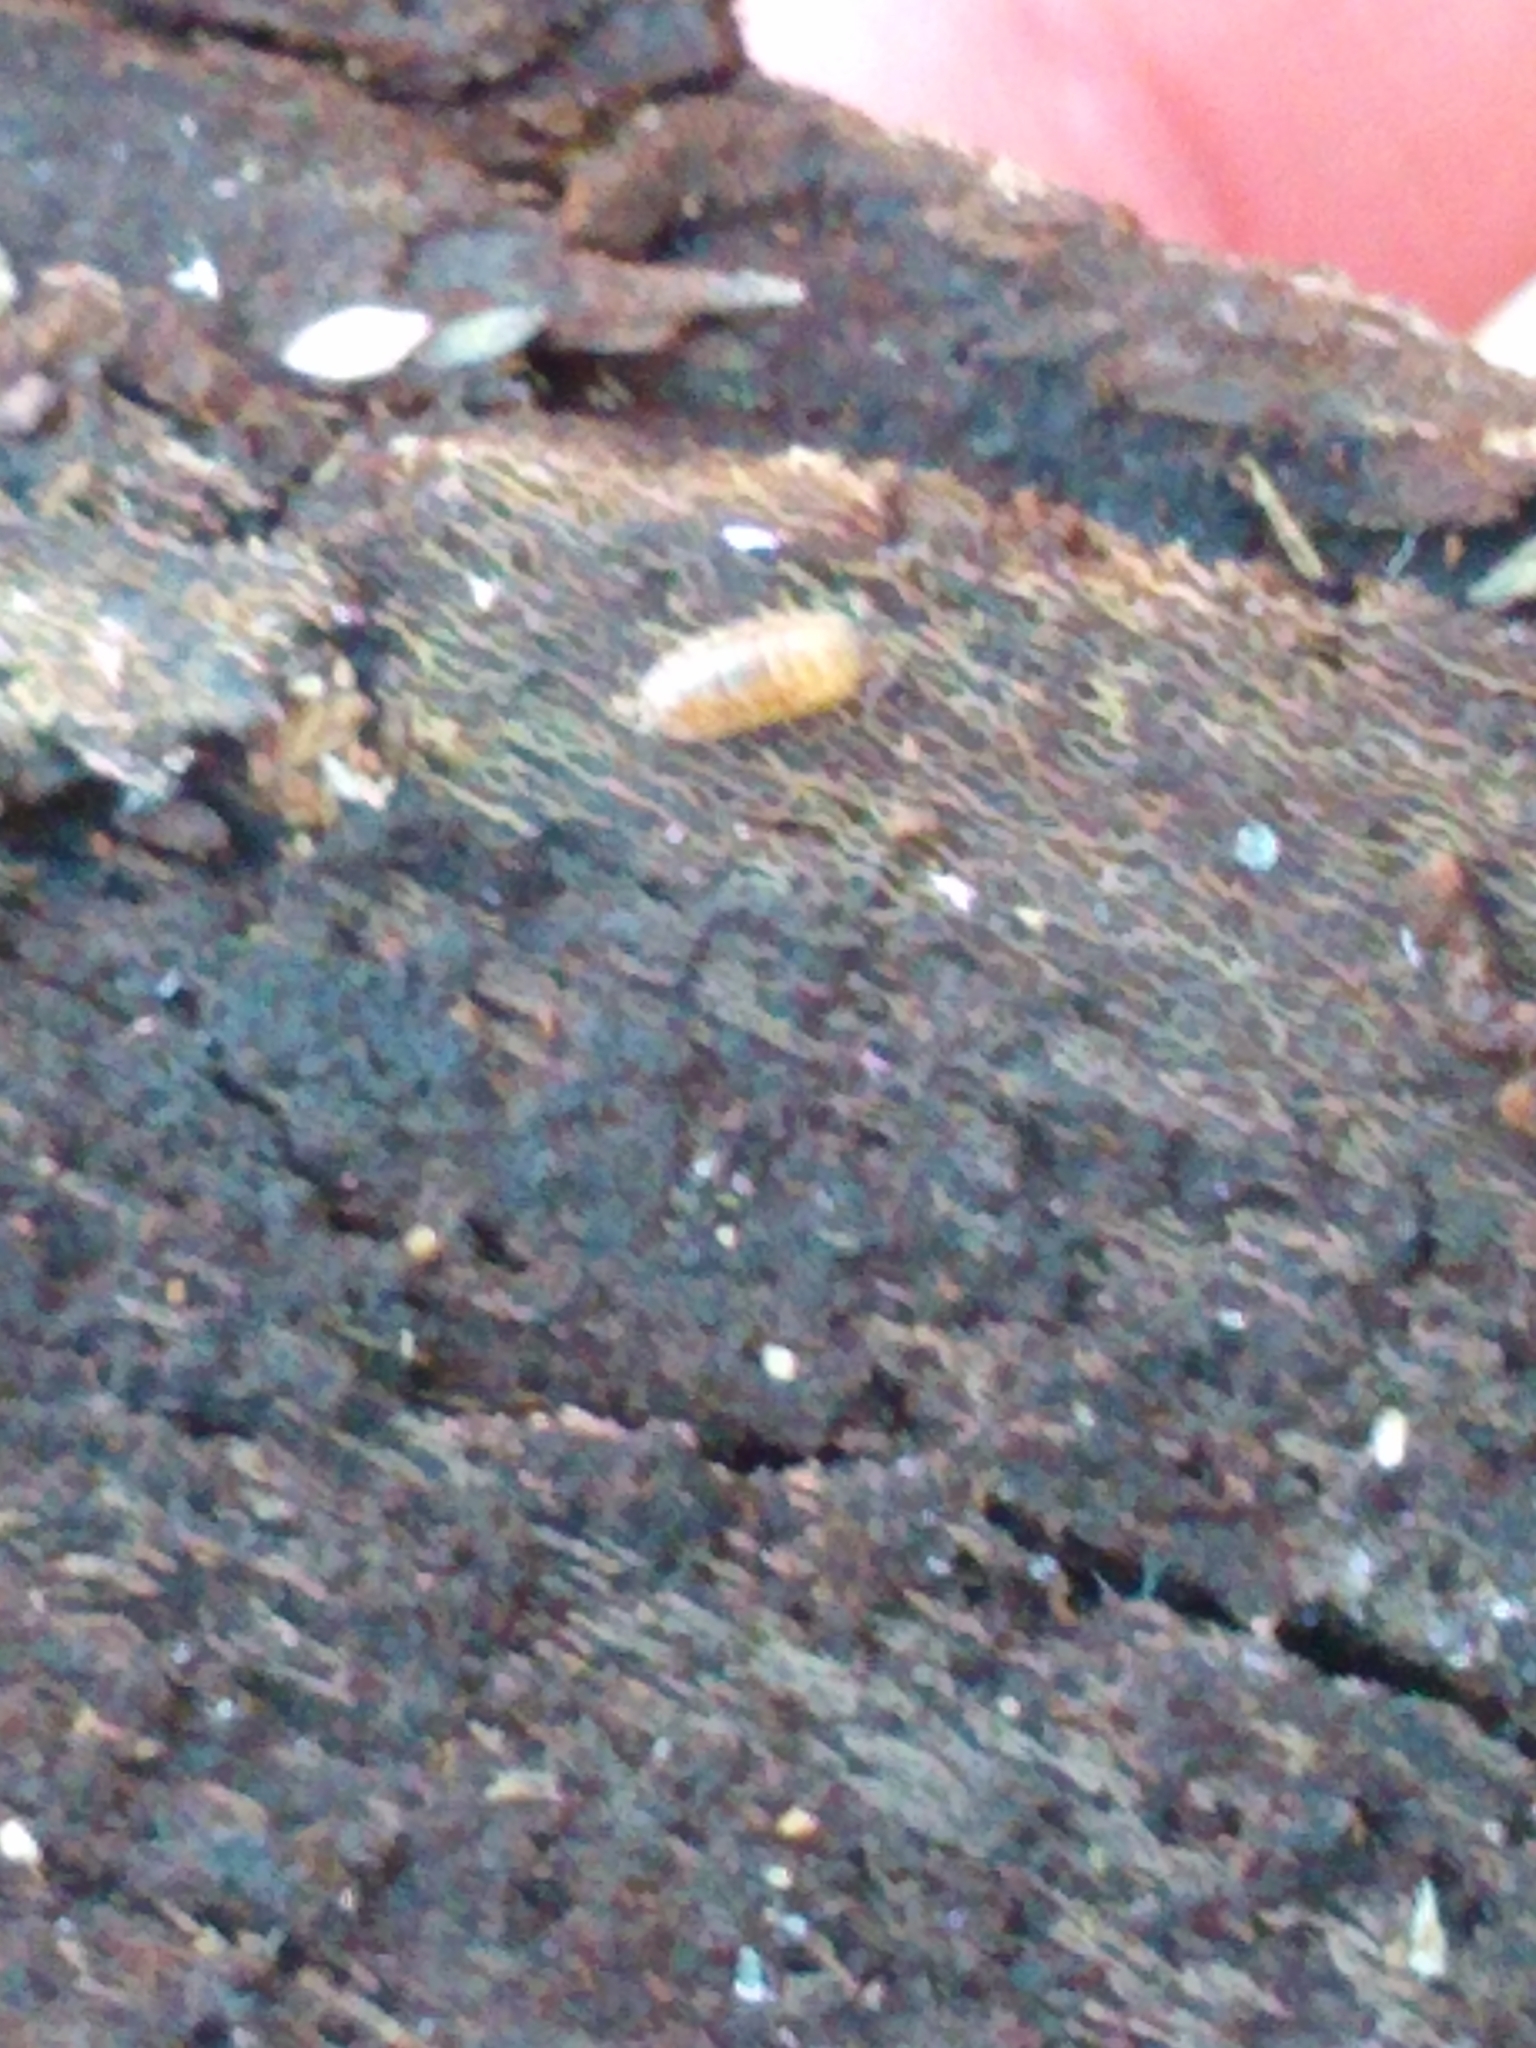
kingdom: Animalia
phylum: Arthropoda
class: Malacostraca
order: Isopoda
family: Trachelipodidae
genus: Trachelipus
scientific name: Trachelipus rathkii
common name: Isopod
